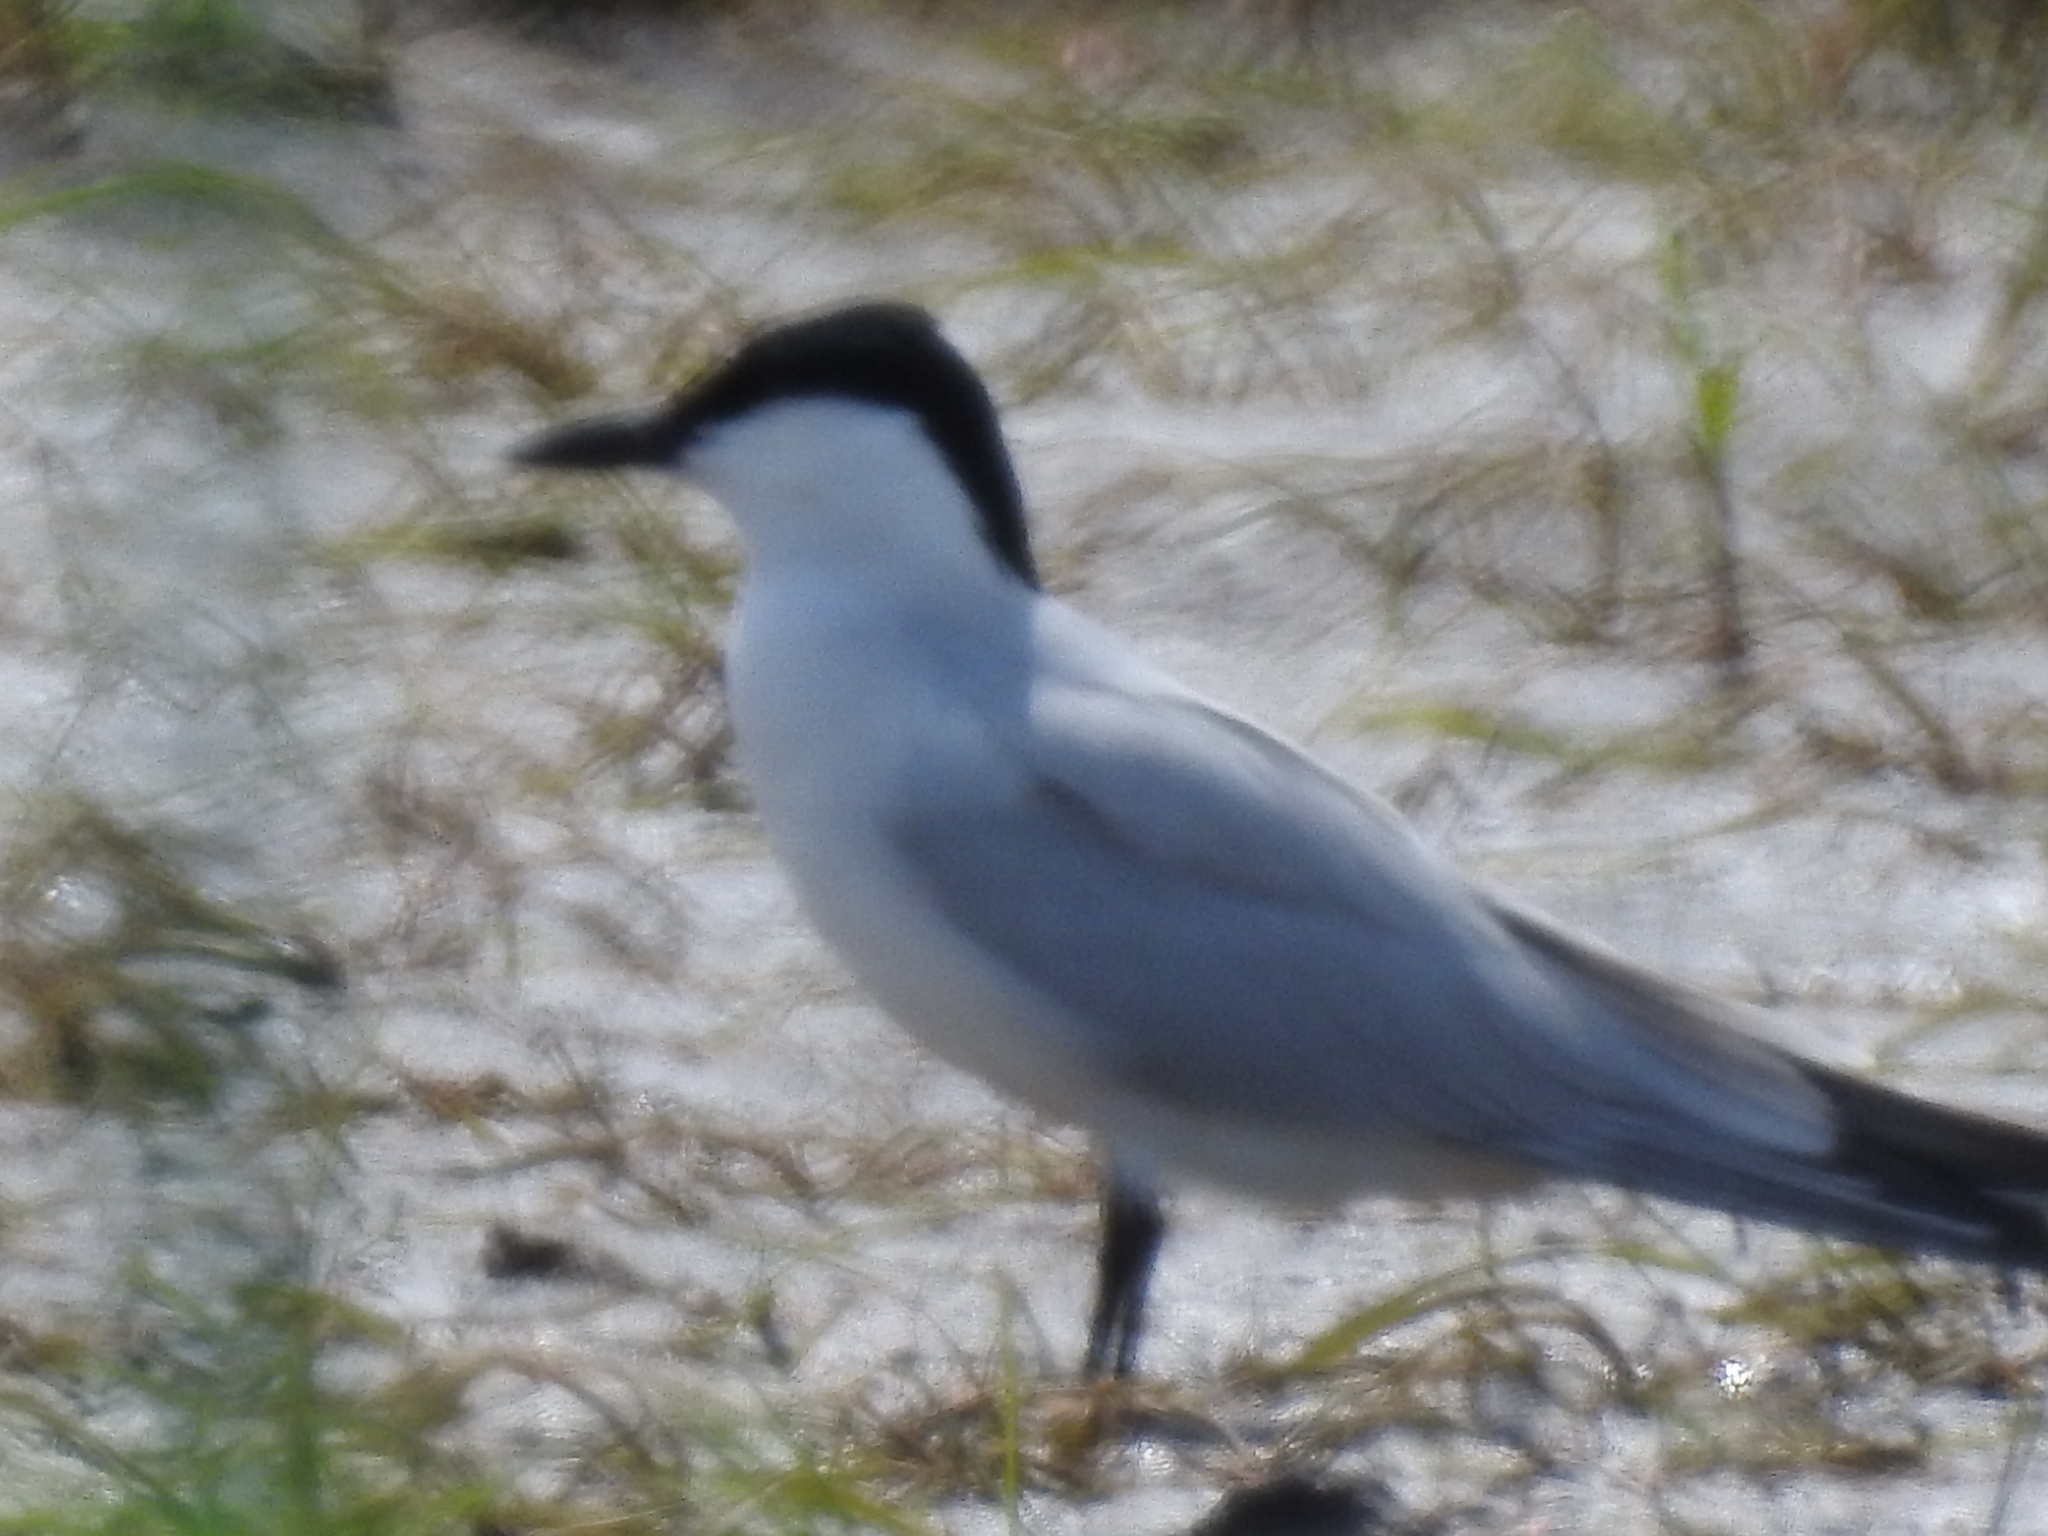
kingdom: Animalia
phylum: Chordata
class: Aves
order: Charadriiformes
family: Laridae
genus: Gelochelidon
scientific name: Gelochelidon nilotica
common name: Gull-billed tern
